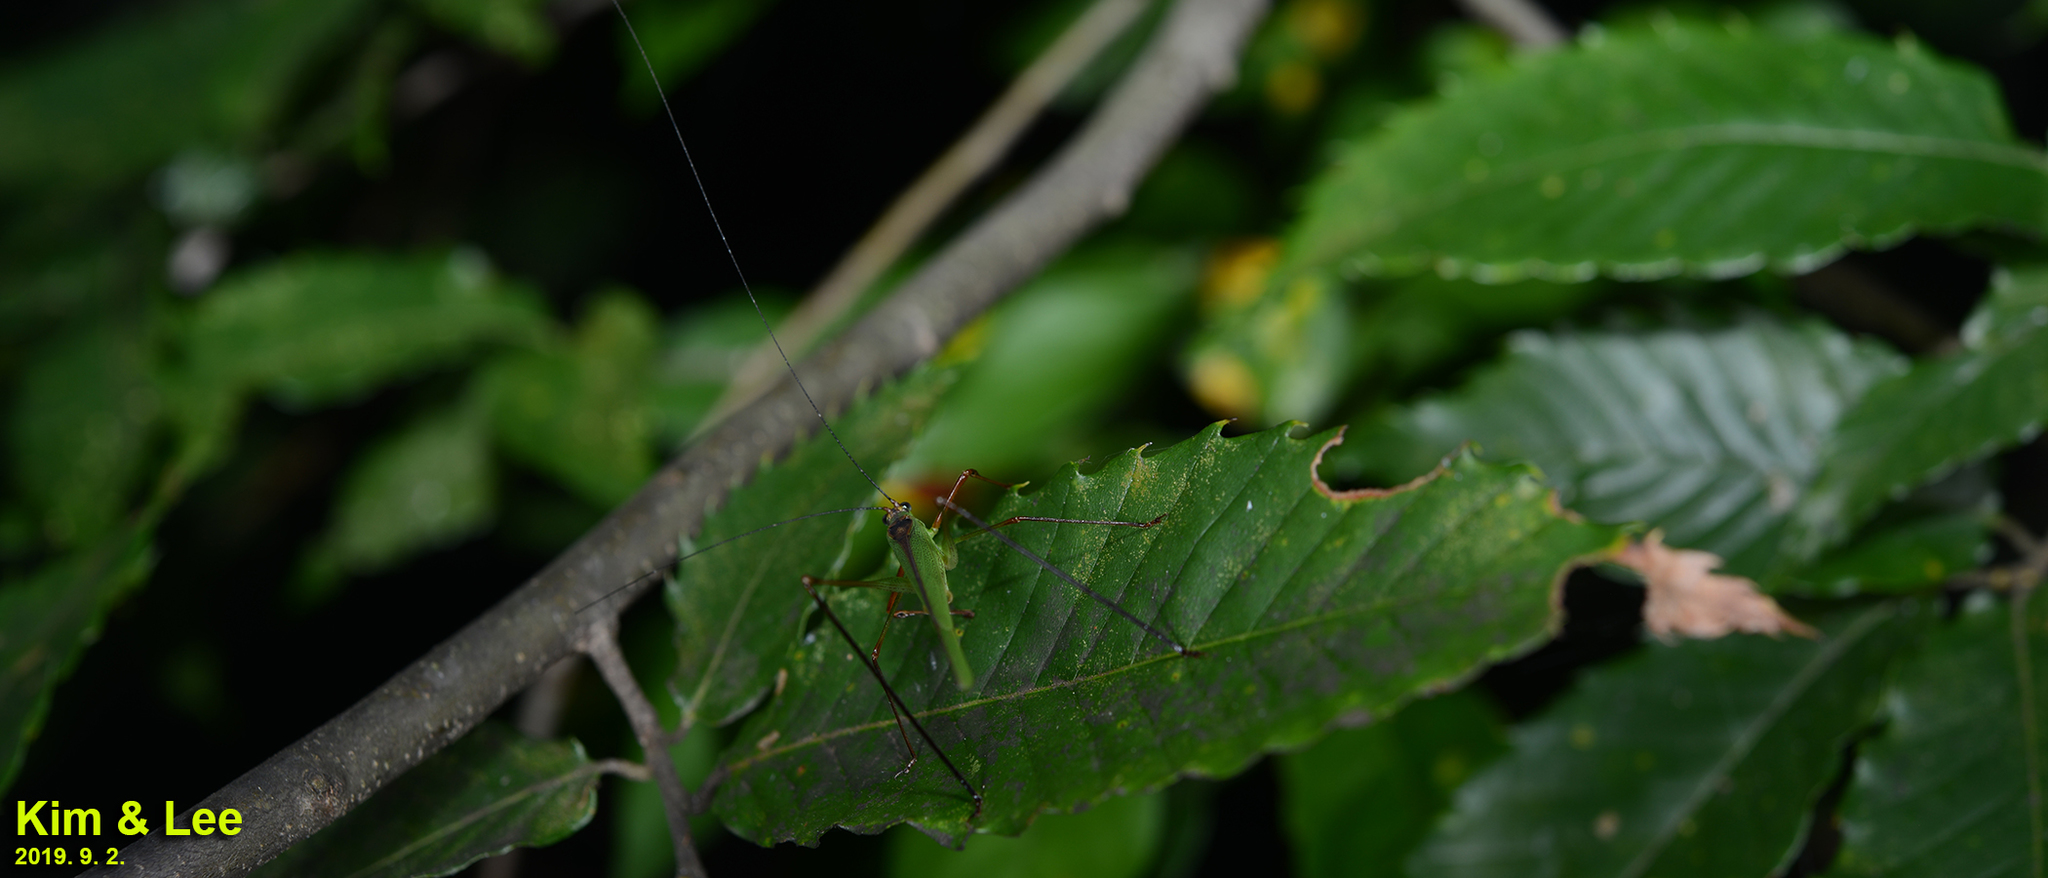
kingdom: Animalia
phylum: Arthropoda
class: Insecta
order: Orthoptera
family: Tettigoniidae
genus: Phaneroptera
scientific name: Phaneroptera nigroantennata
